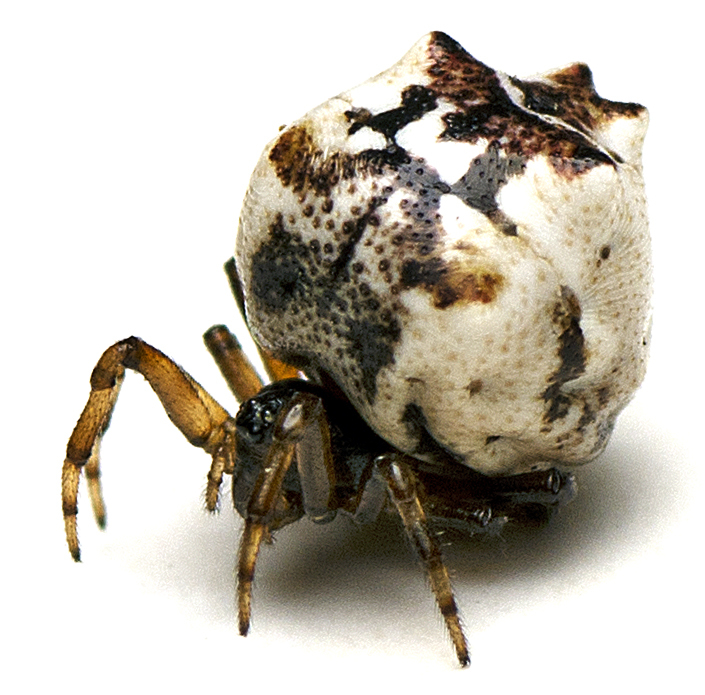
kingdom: Animalia
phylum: Arthropoda
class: Arachnida
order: Araneae
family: Theridiidae
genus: Phoroncidia
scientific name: Phoroncidia sextuberculata
